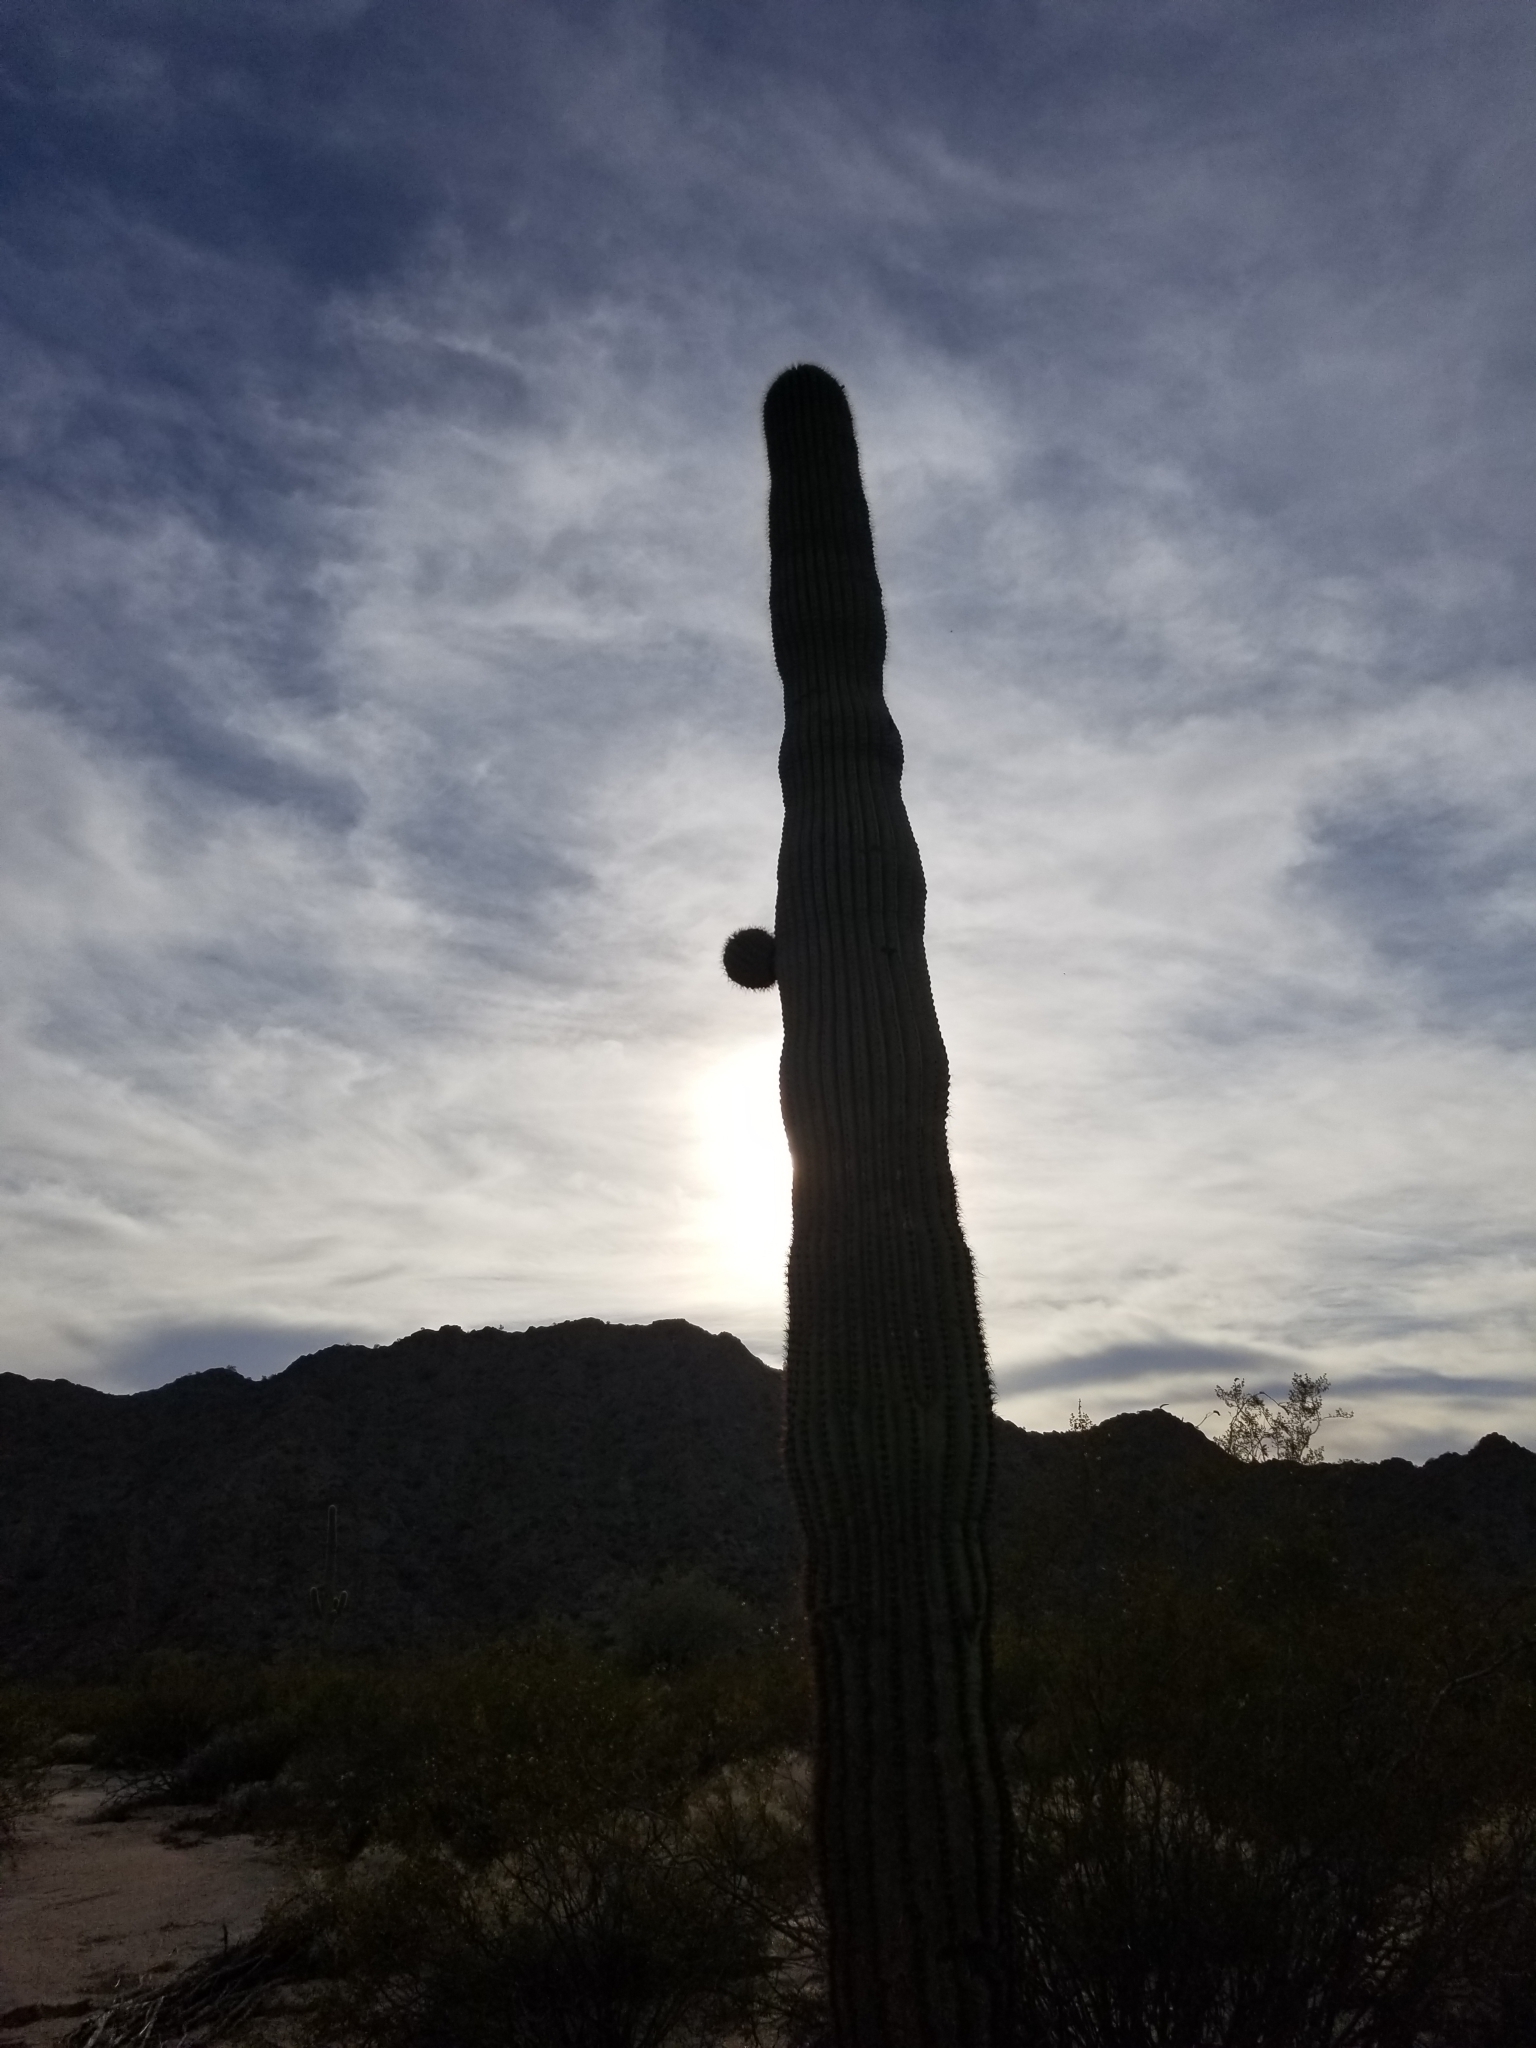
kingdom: Plantae
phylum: Tracheophyta
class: Magnoliopsida
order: Caryophyllales
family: Cactaceae
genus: Carnegiea
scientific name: Carnegiea gigantea
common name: Saguaro
